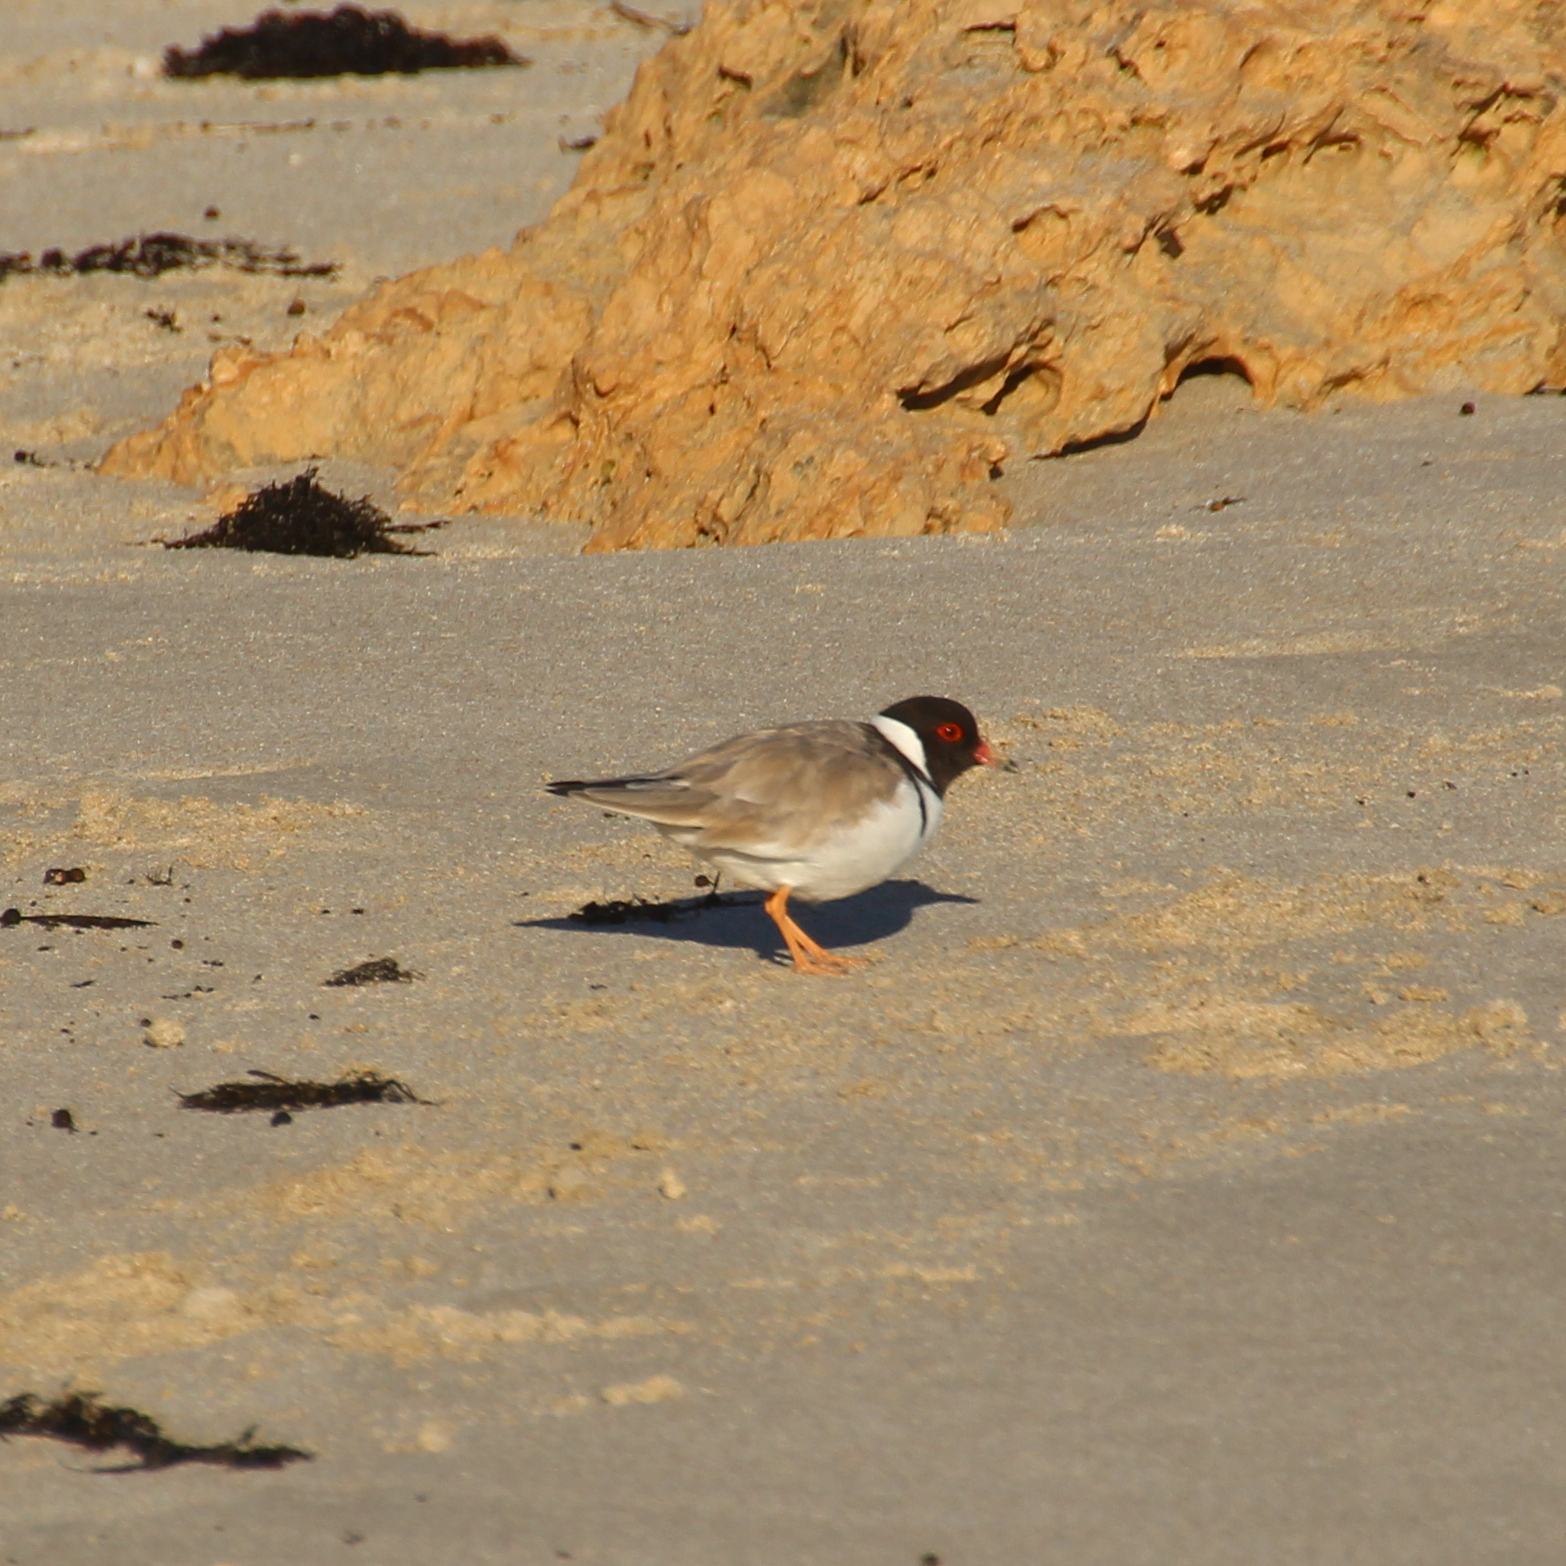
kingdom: Animalia
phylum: Chordata
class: Aves
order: Charadriiformes
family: Charadriidae
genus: Thinornis
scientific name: Thinornis cucullatus
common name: Hooded dotterel
